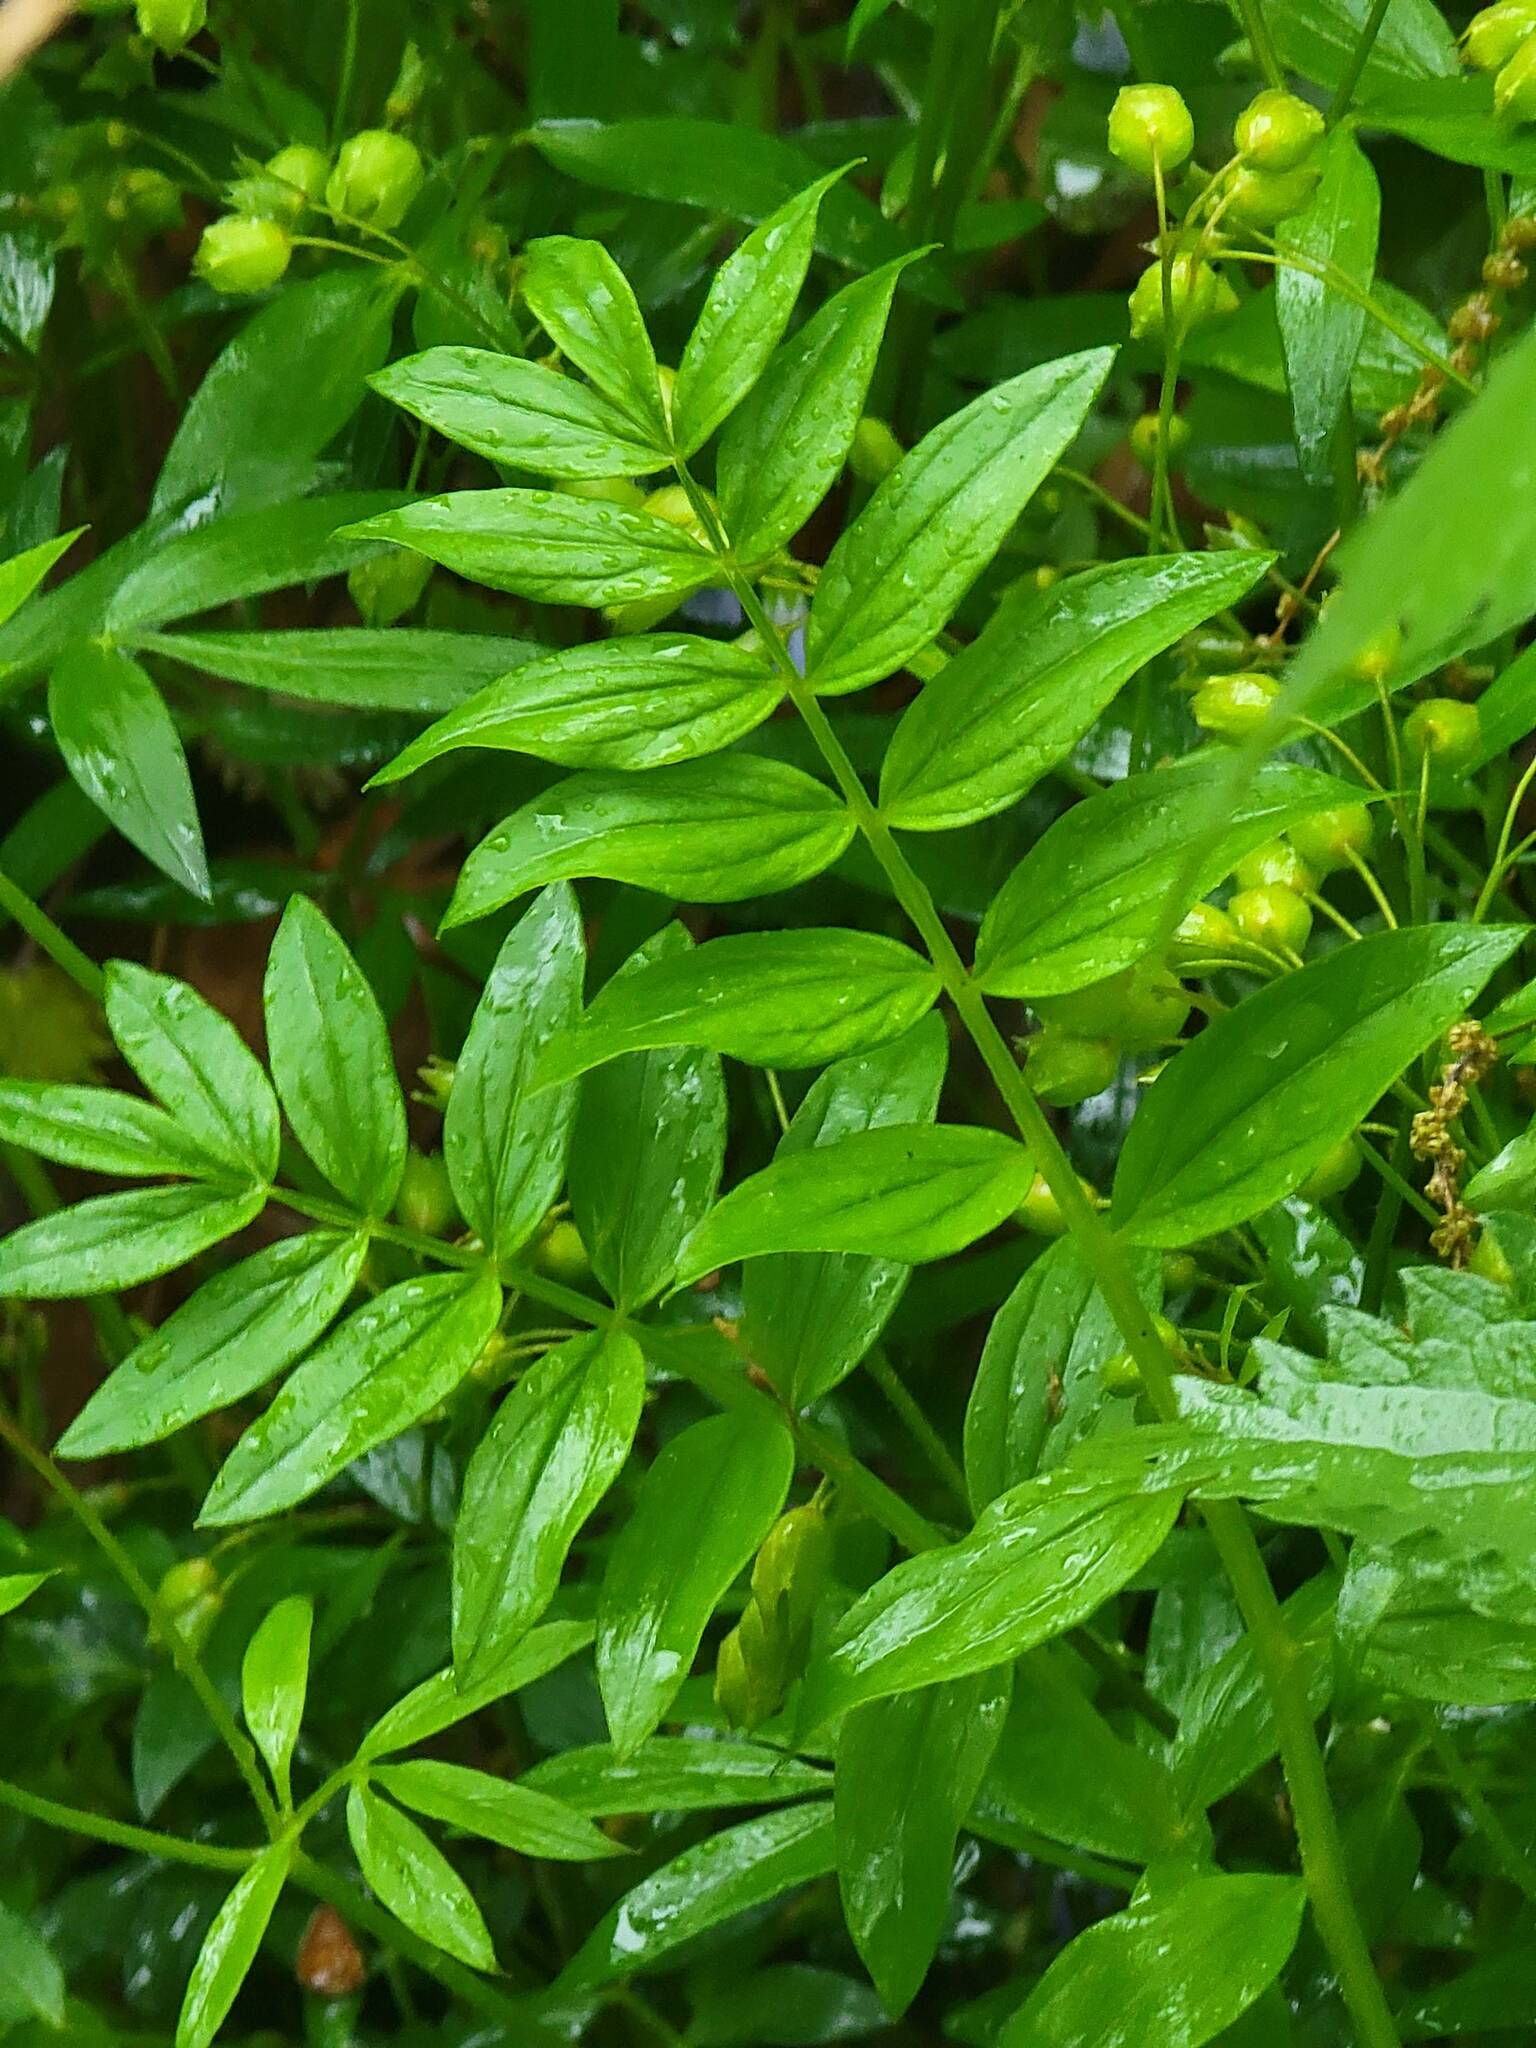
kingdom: Plantae
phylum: Tracheophyta
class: Magnoliopsida
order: Ericales
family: Polemoniaceae
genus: Polemonium
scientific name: Polemonium reptans
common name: Creeping jacob's-ladder
